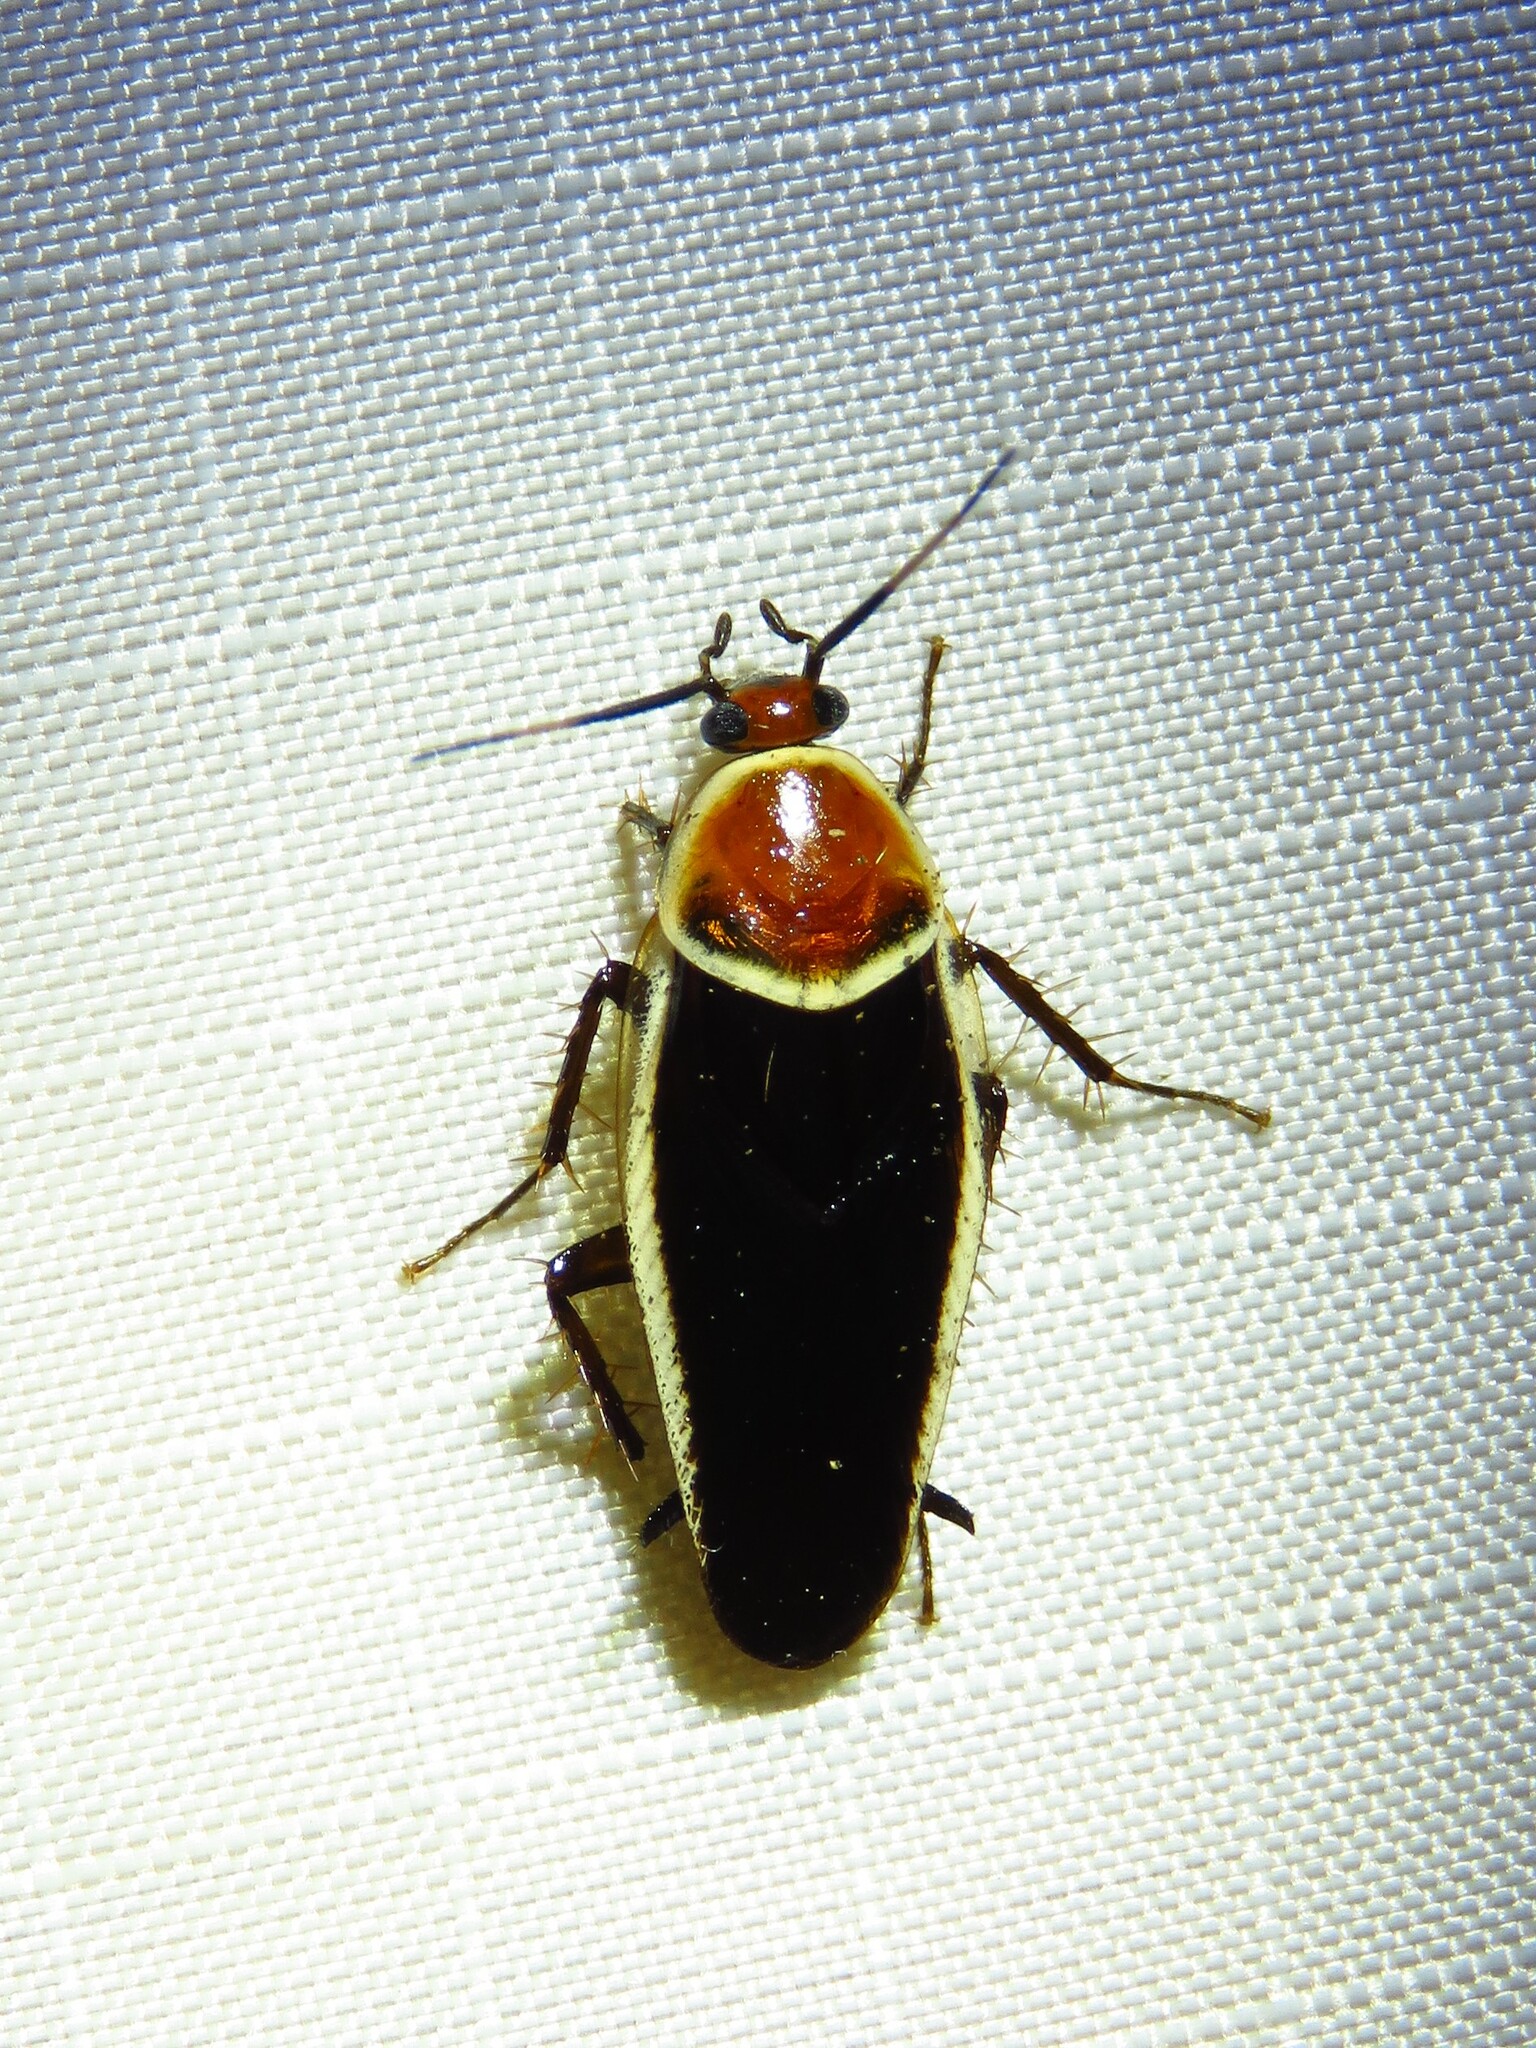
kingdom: Animalia
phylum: Arthropoda
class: Insecta
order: Blattodea
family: Ectobiidae
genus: Pseudomops
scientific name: Pseudomops septentrionalis
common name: Pale-bordered field cockroach
